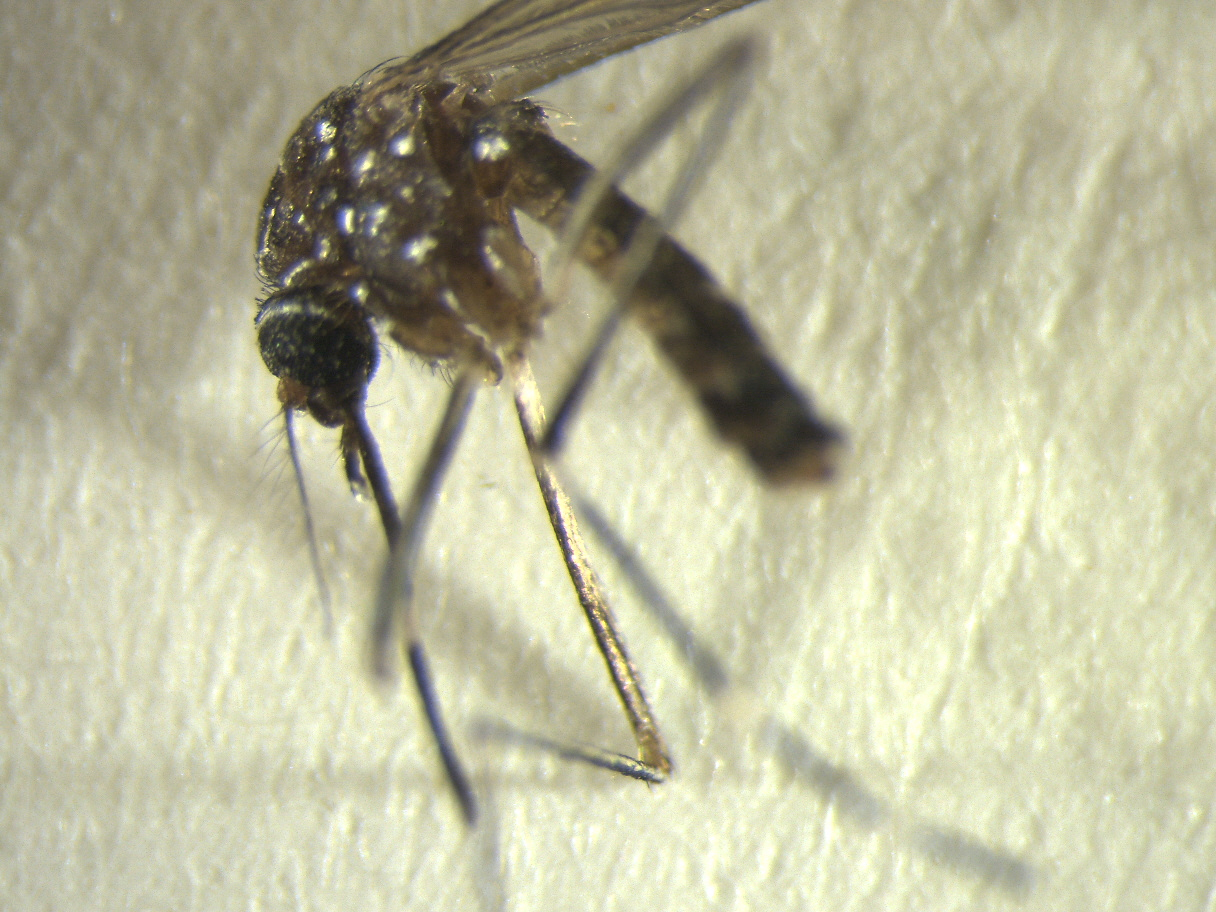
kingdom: Animalia
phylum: Arthropoda
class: Insecta
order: Diptera
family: Culicidae
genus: Aedes
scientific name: Aedes notoscriptus
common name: Australian backyard mosquito
